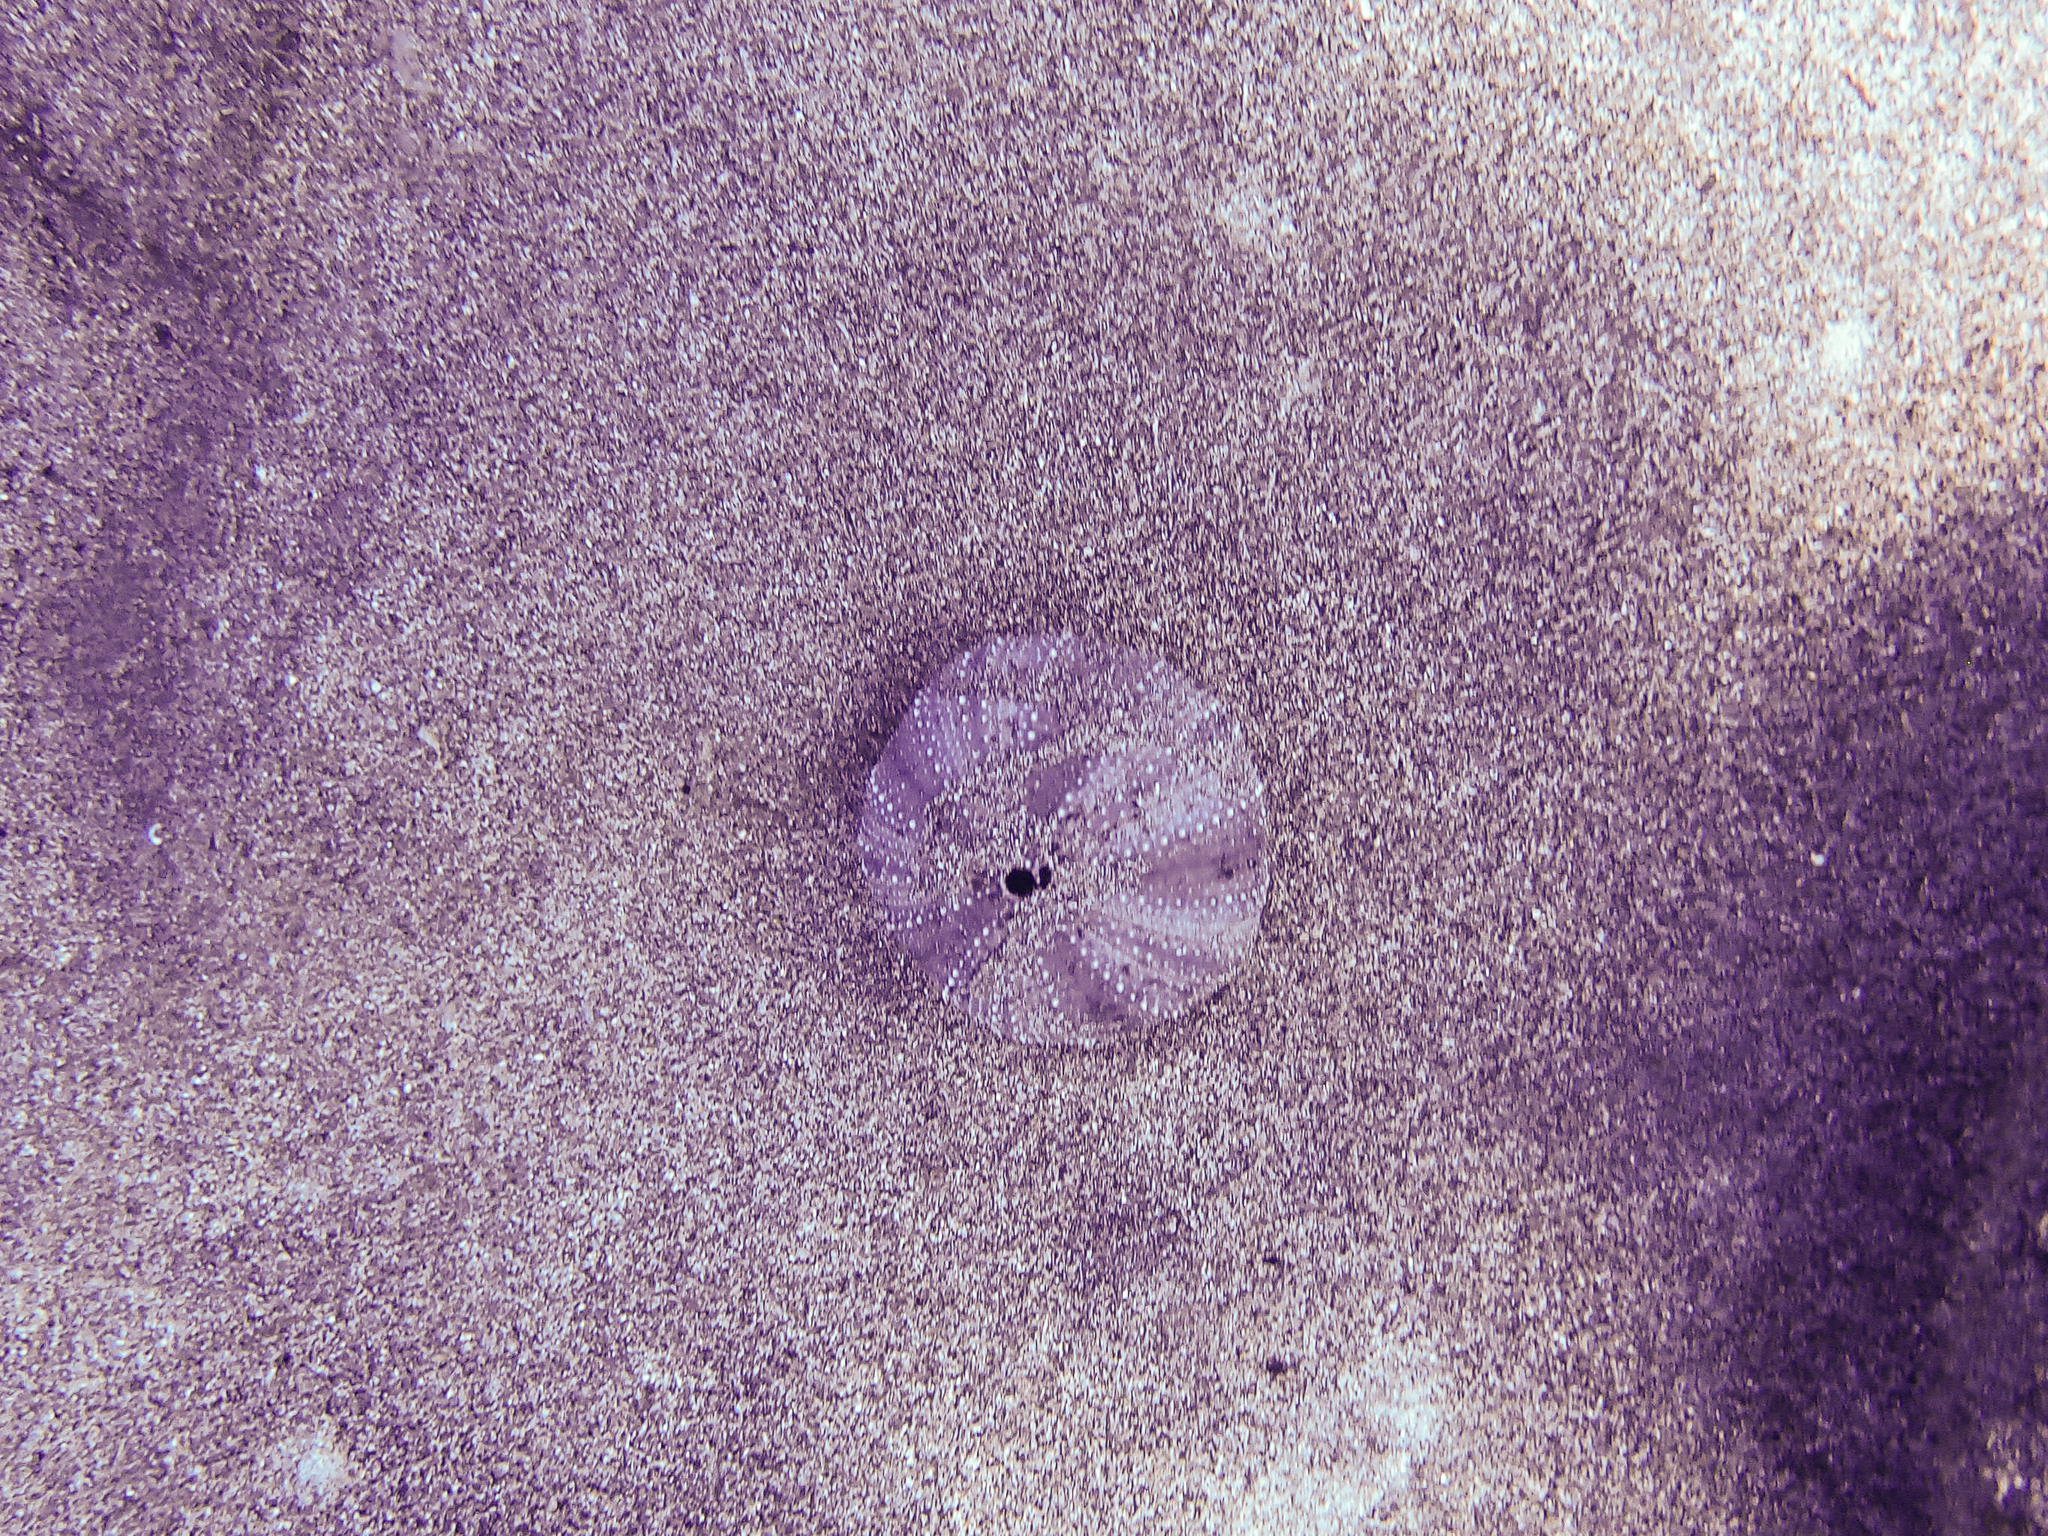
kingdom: Animalia
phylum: Echinodermata
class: Echinoidea
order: Camarodonta
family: Toxopneustidae
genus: Tripneustes
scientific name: Tripneustes gratilla
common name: Bischofsmützenseeigel
